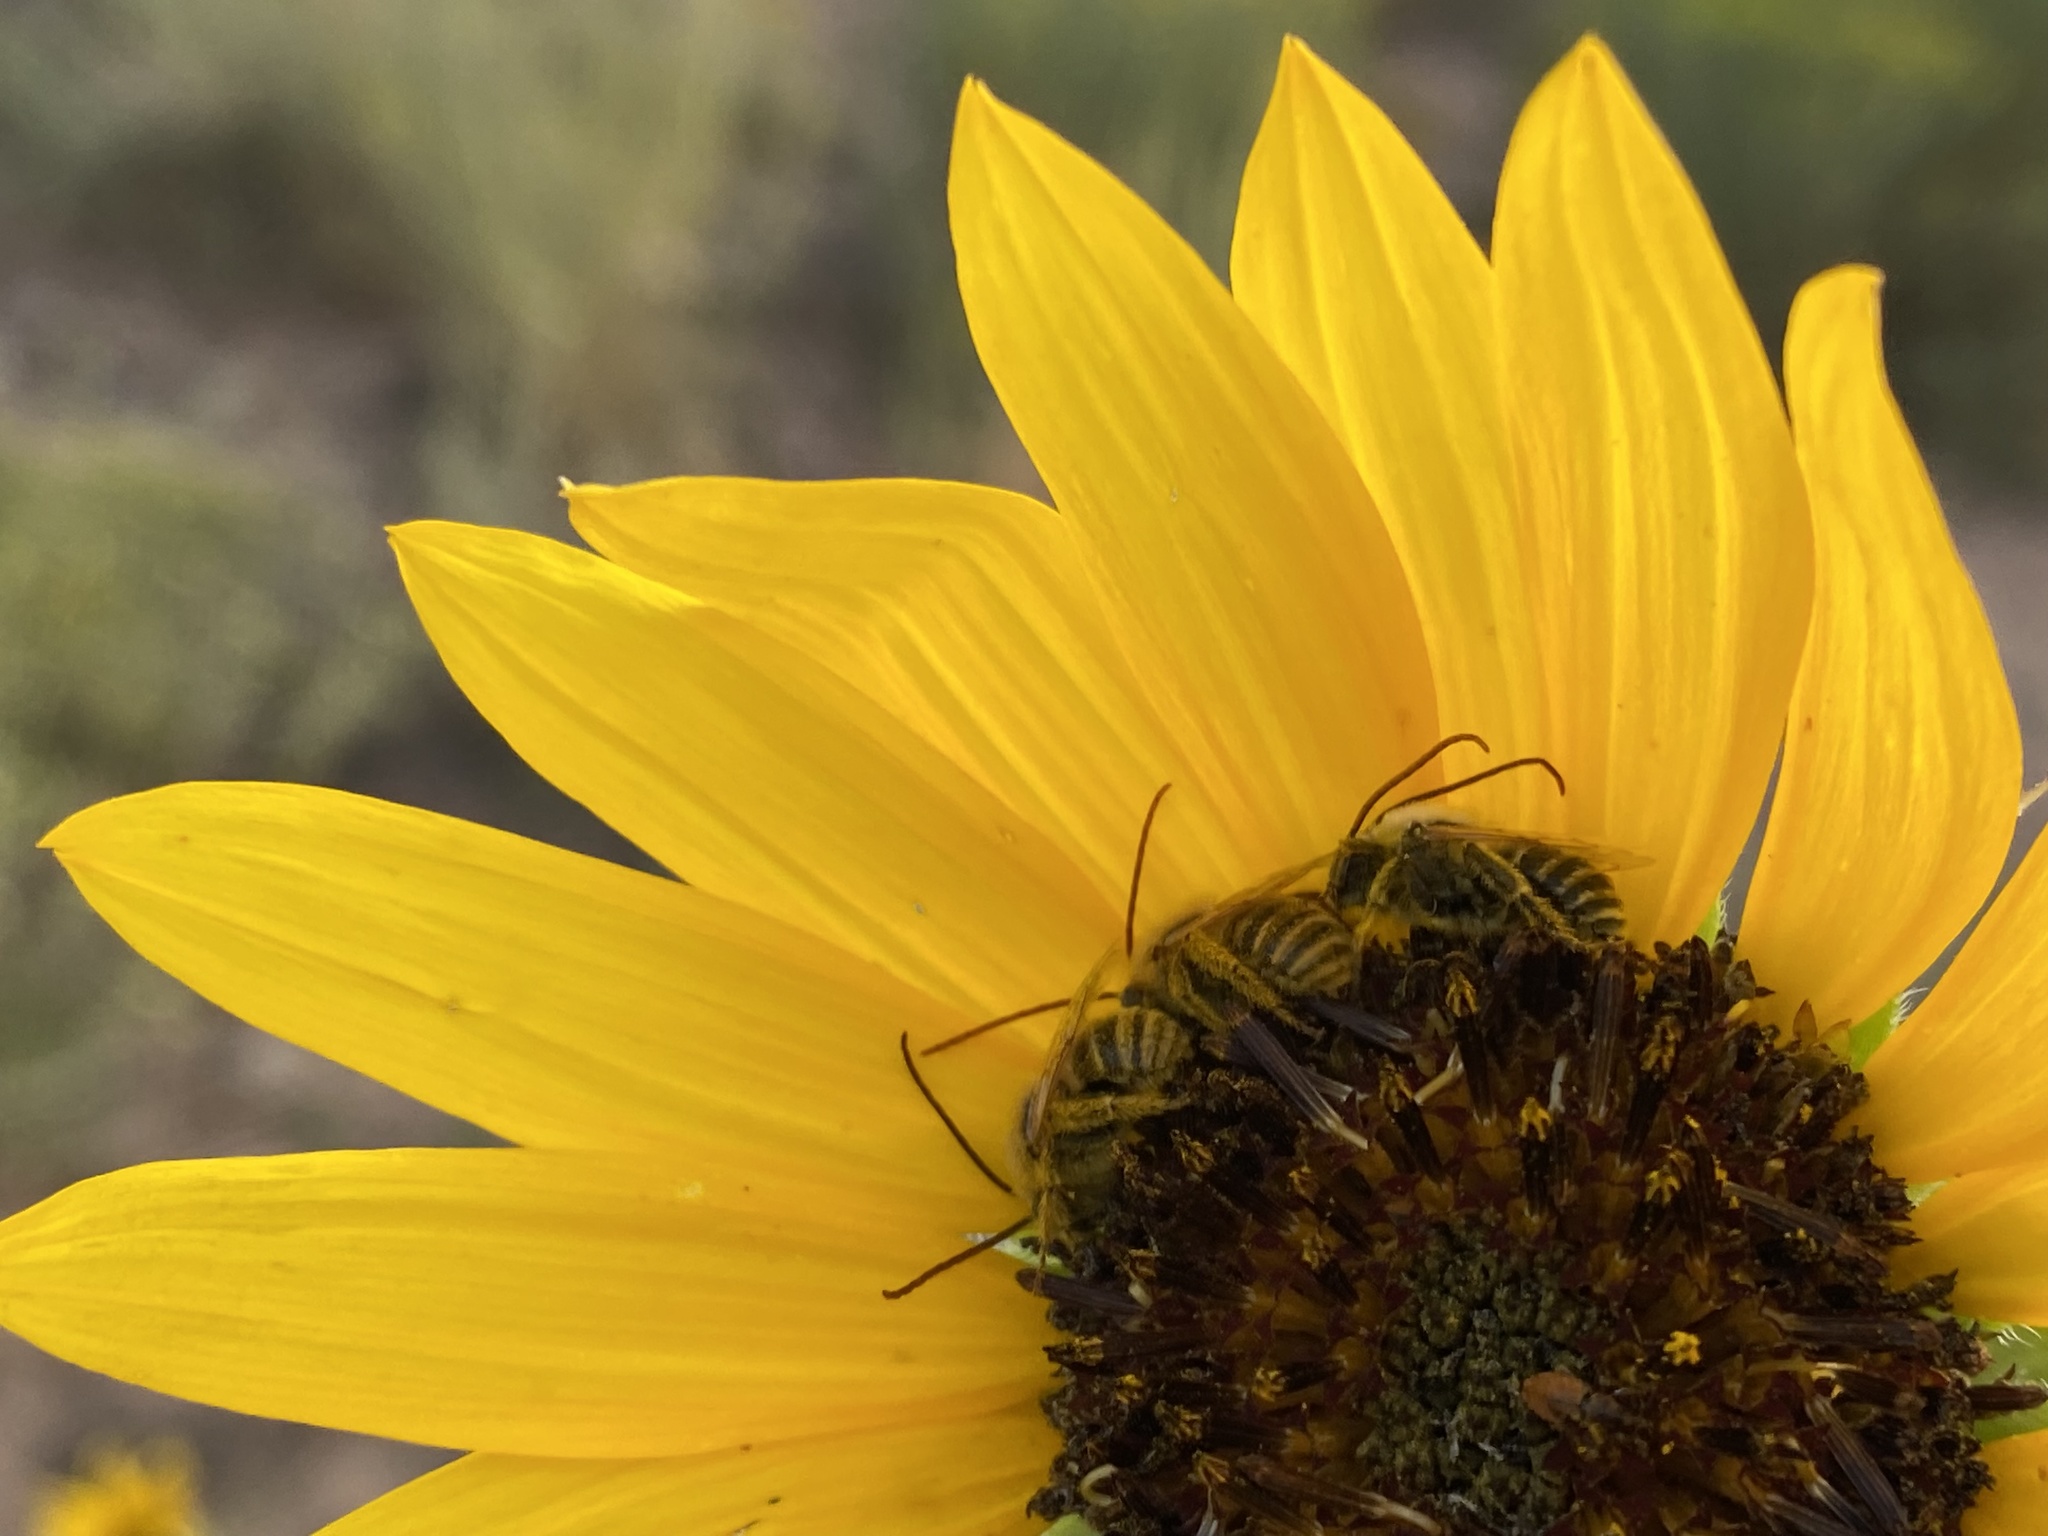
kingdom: Plantae
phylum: Tracheophyta
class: Magnoliopsida
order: Asterales
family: Asteraceae
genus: Helianthus
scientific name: Helianthus annuus
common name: Sunflower
